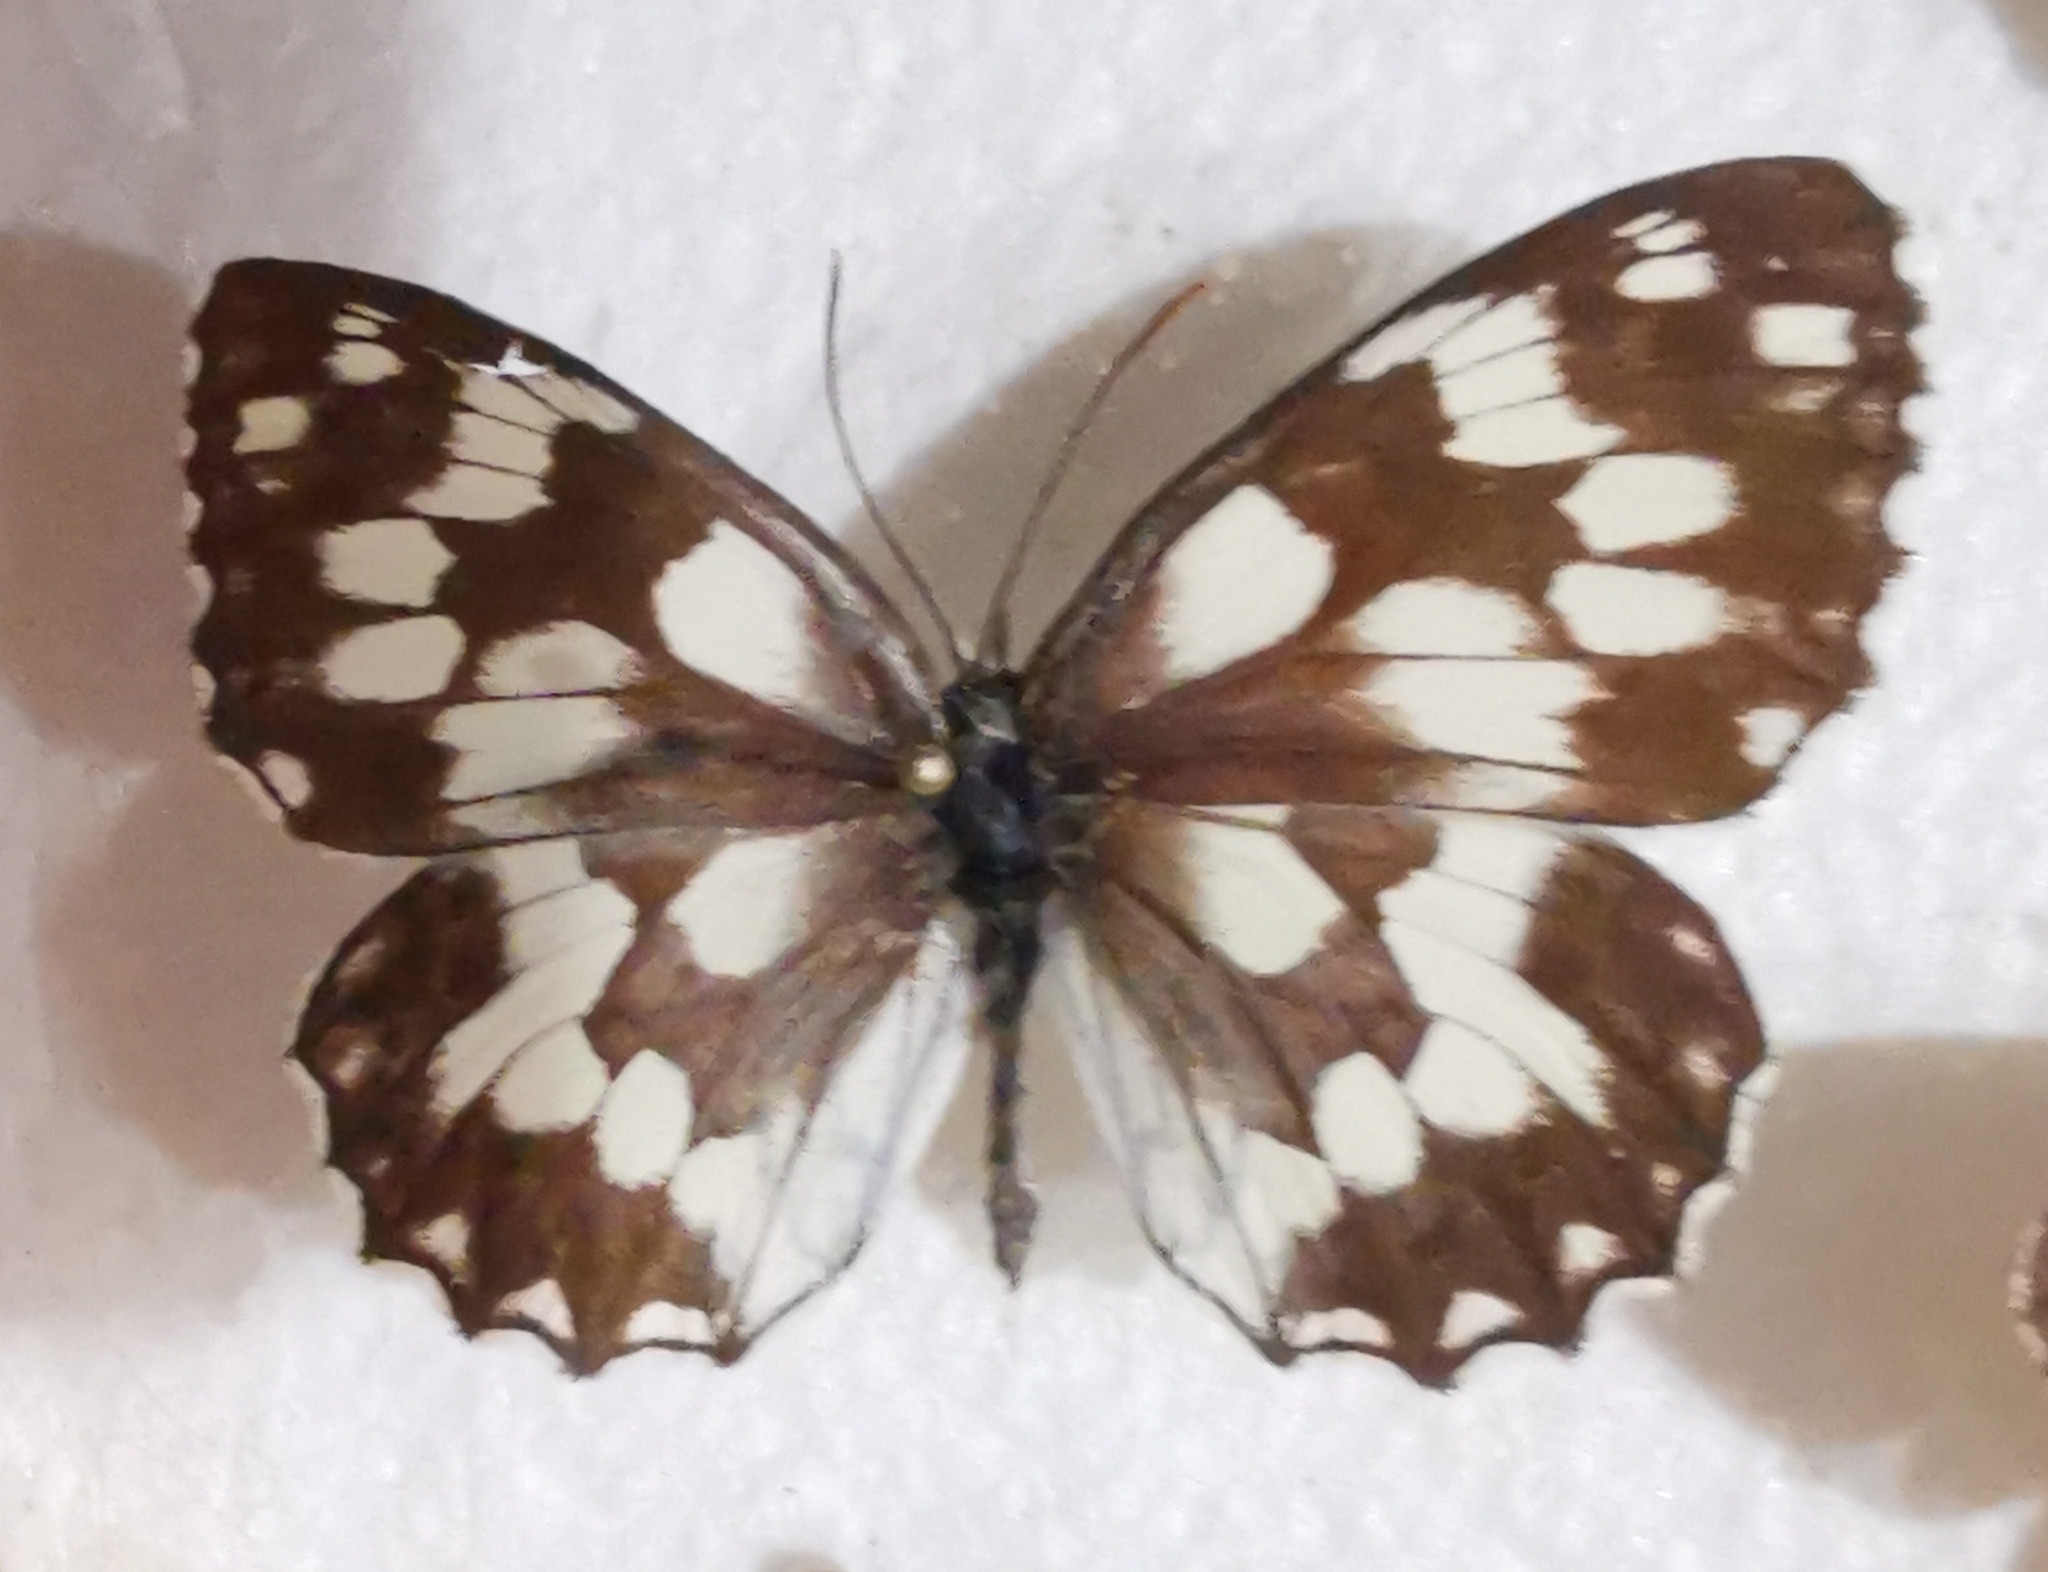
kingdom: Animalia
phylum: Arthropoda
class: Insecta
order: Lepidoptera
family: Nymphalidae
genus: Melanargia
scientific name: Melanargia galathea
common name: Marbled white
